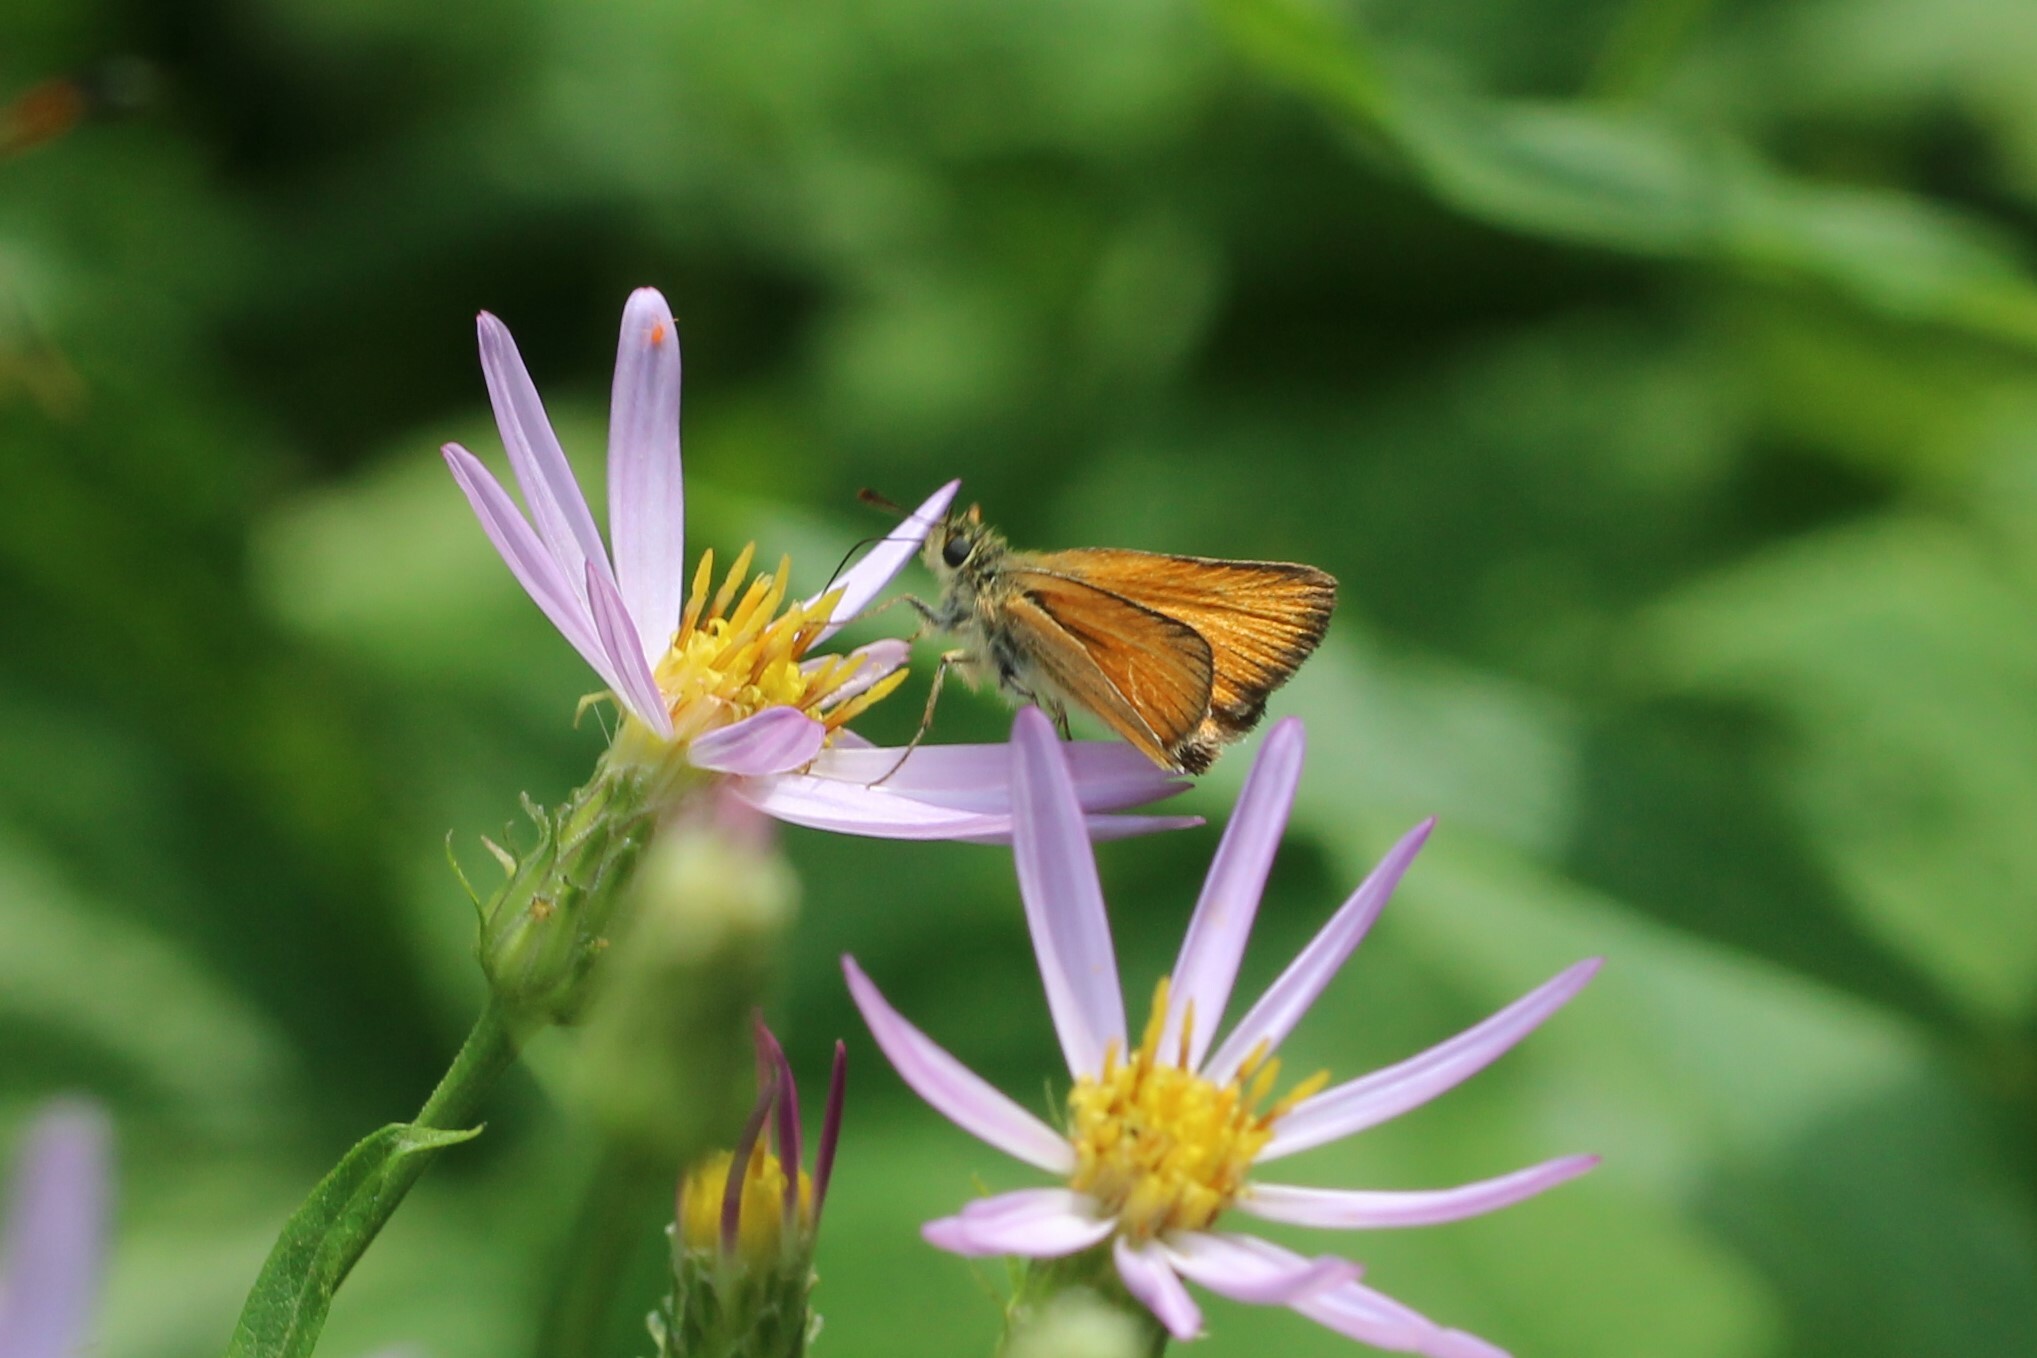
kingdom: Animalia
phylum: Arthropoda
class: Insecta
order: Lepidoptera
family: Hesperiidae
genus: Thymelicus
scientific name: Thymelicus lineola
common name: Essex skipper
